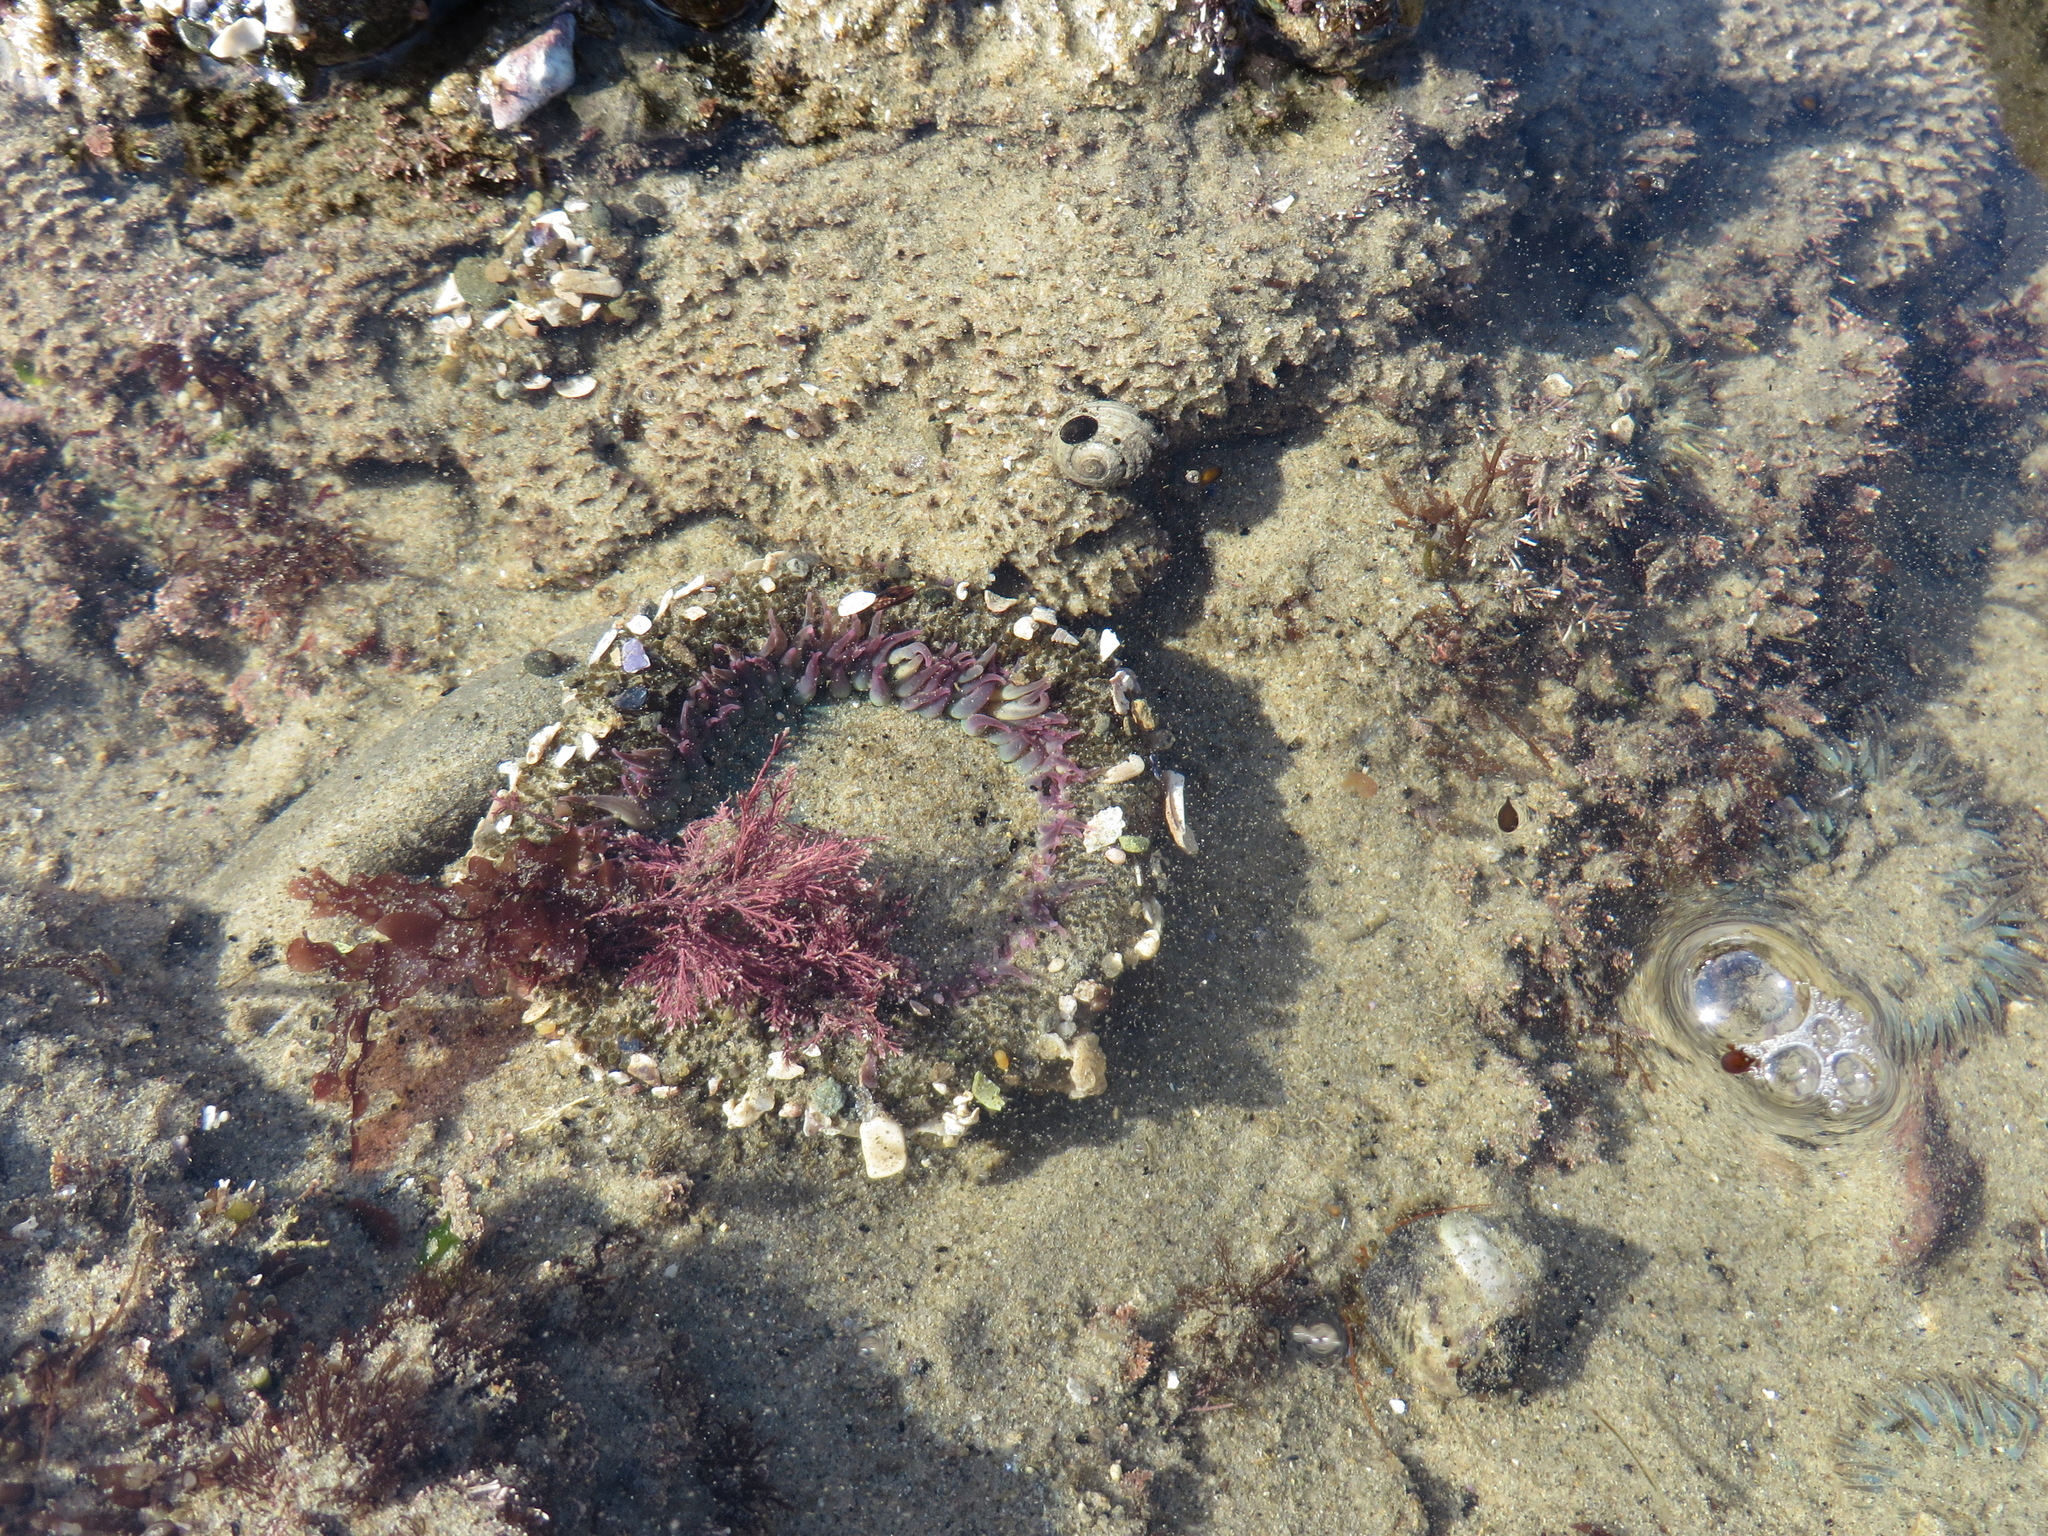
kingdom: Animalia
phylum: Cnidaria
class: Anthozoa
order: Actiniaria
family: Actiniidae
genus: Anthopleura
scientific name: Anthopleura elegantissima
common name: Clonal anemone
